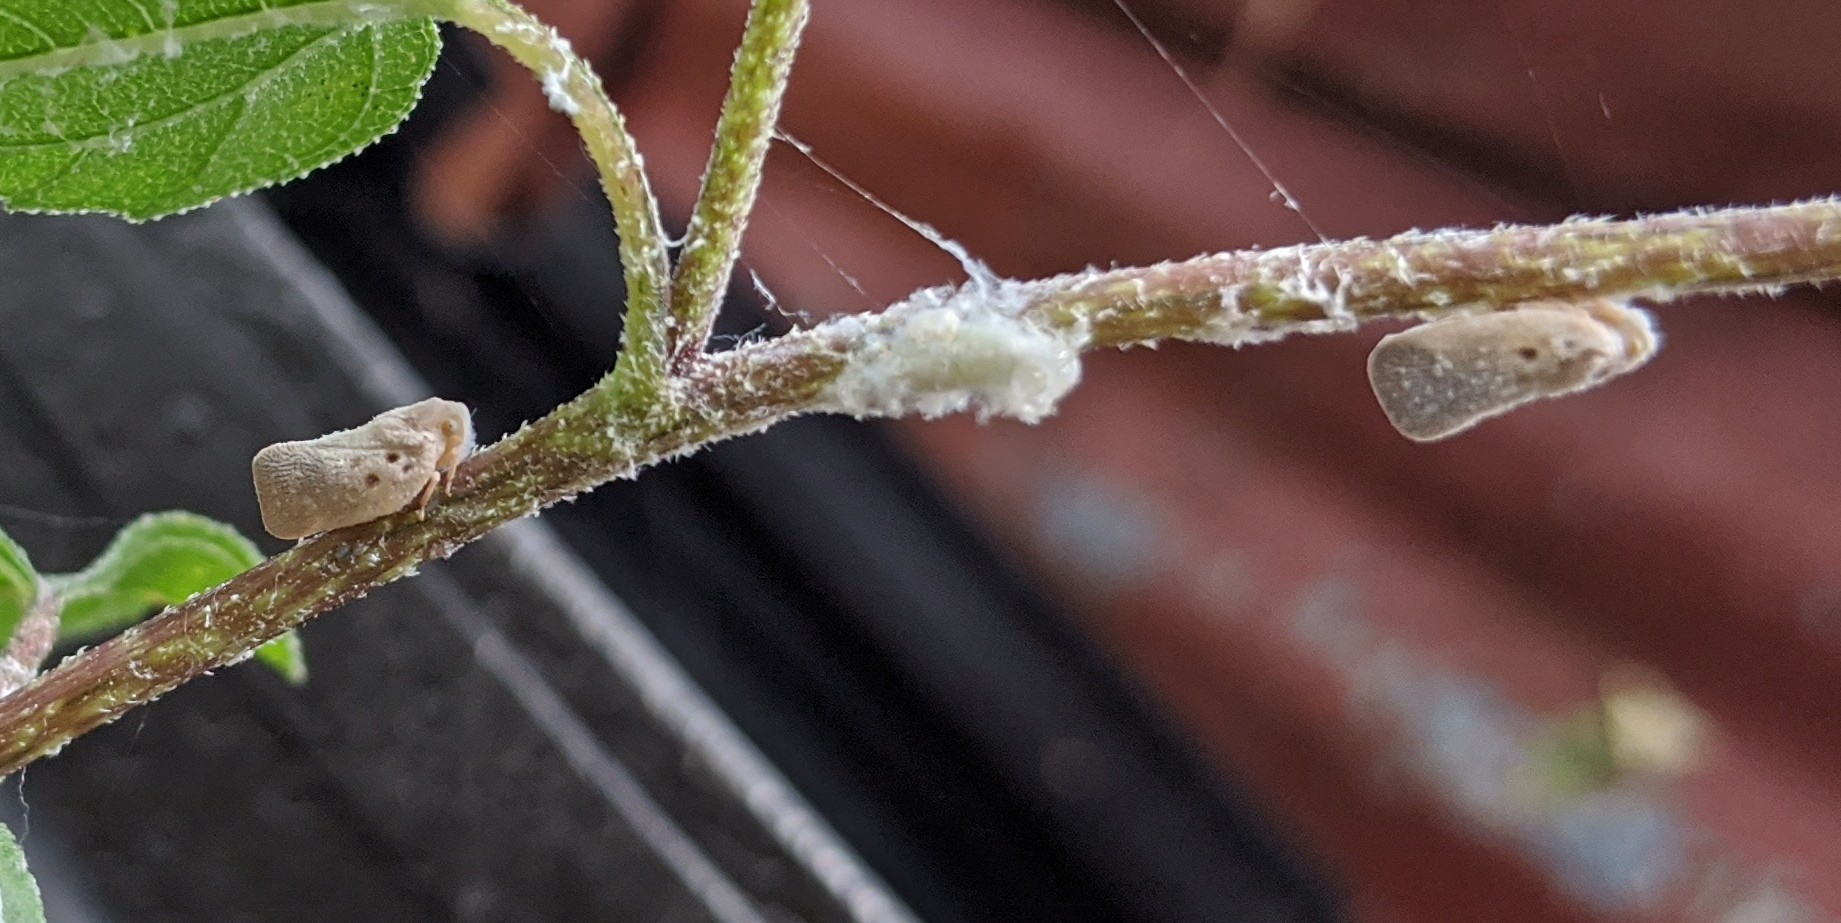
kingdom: Animalia
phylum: Arthropoda
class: Insecta
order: Hemiptera
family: Flatidae
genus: Metcalfa
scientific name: Metcalfa pruinosa
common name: Citrus flatid planthopper
